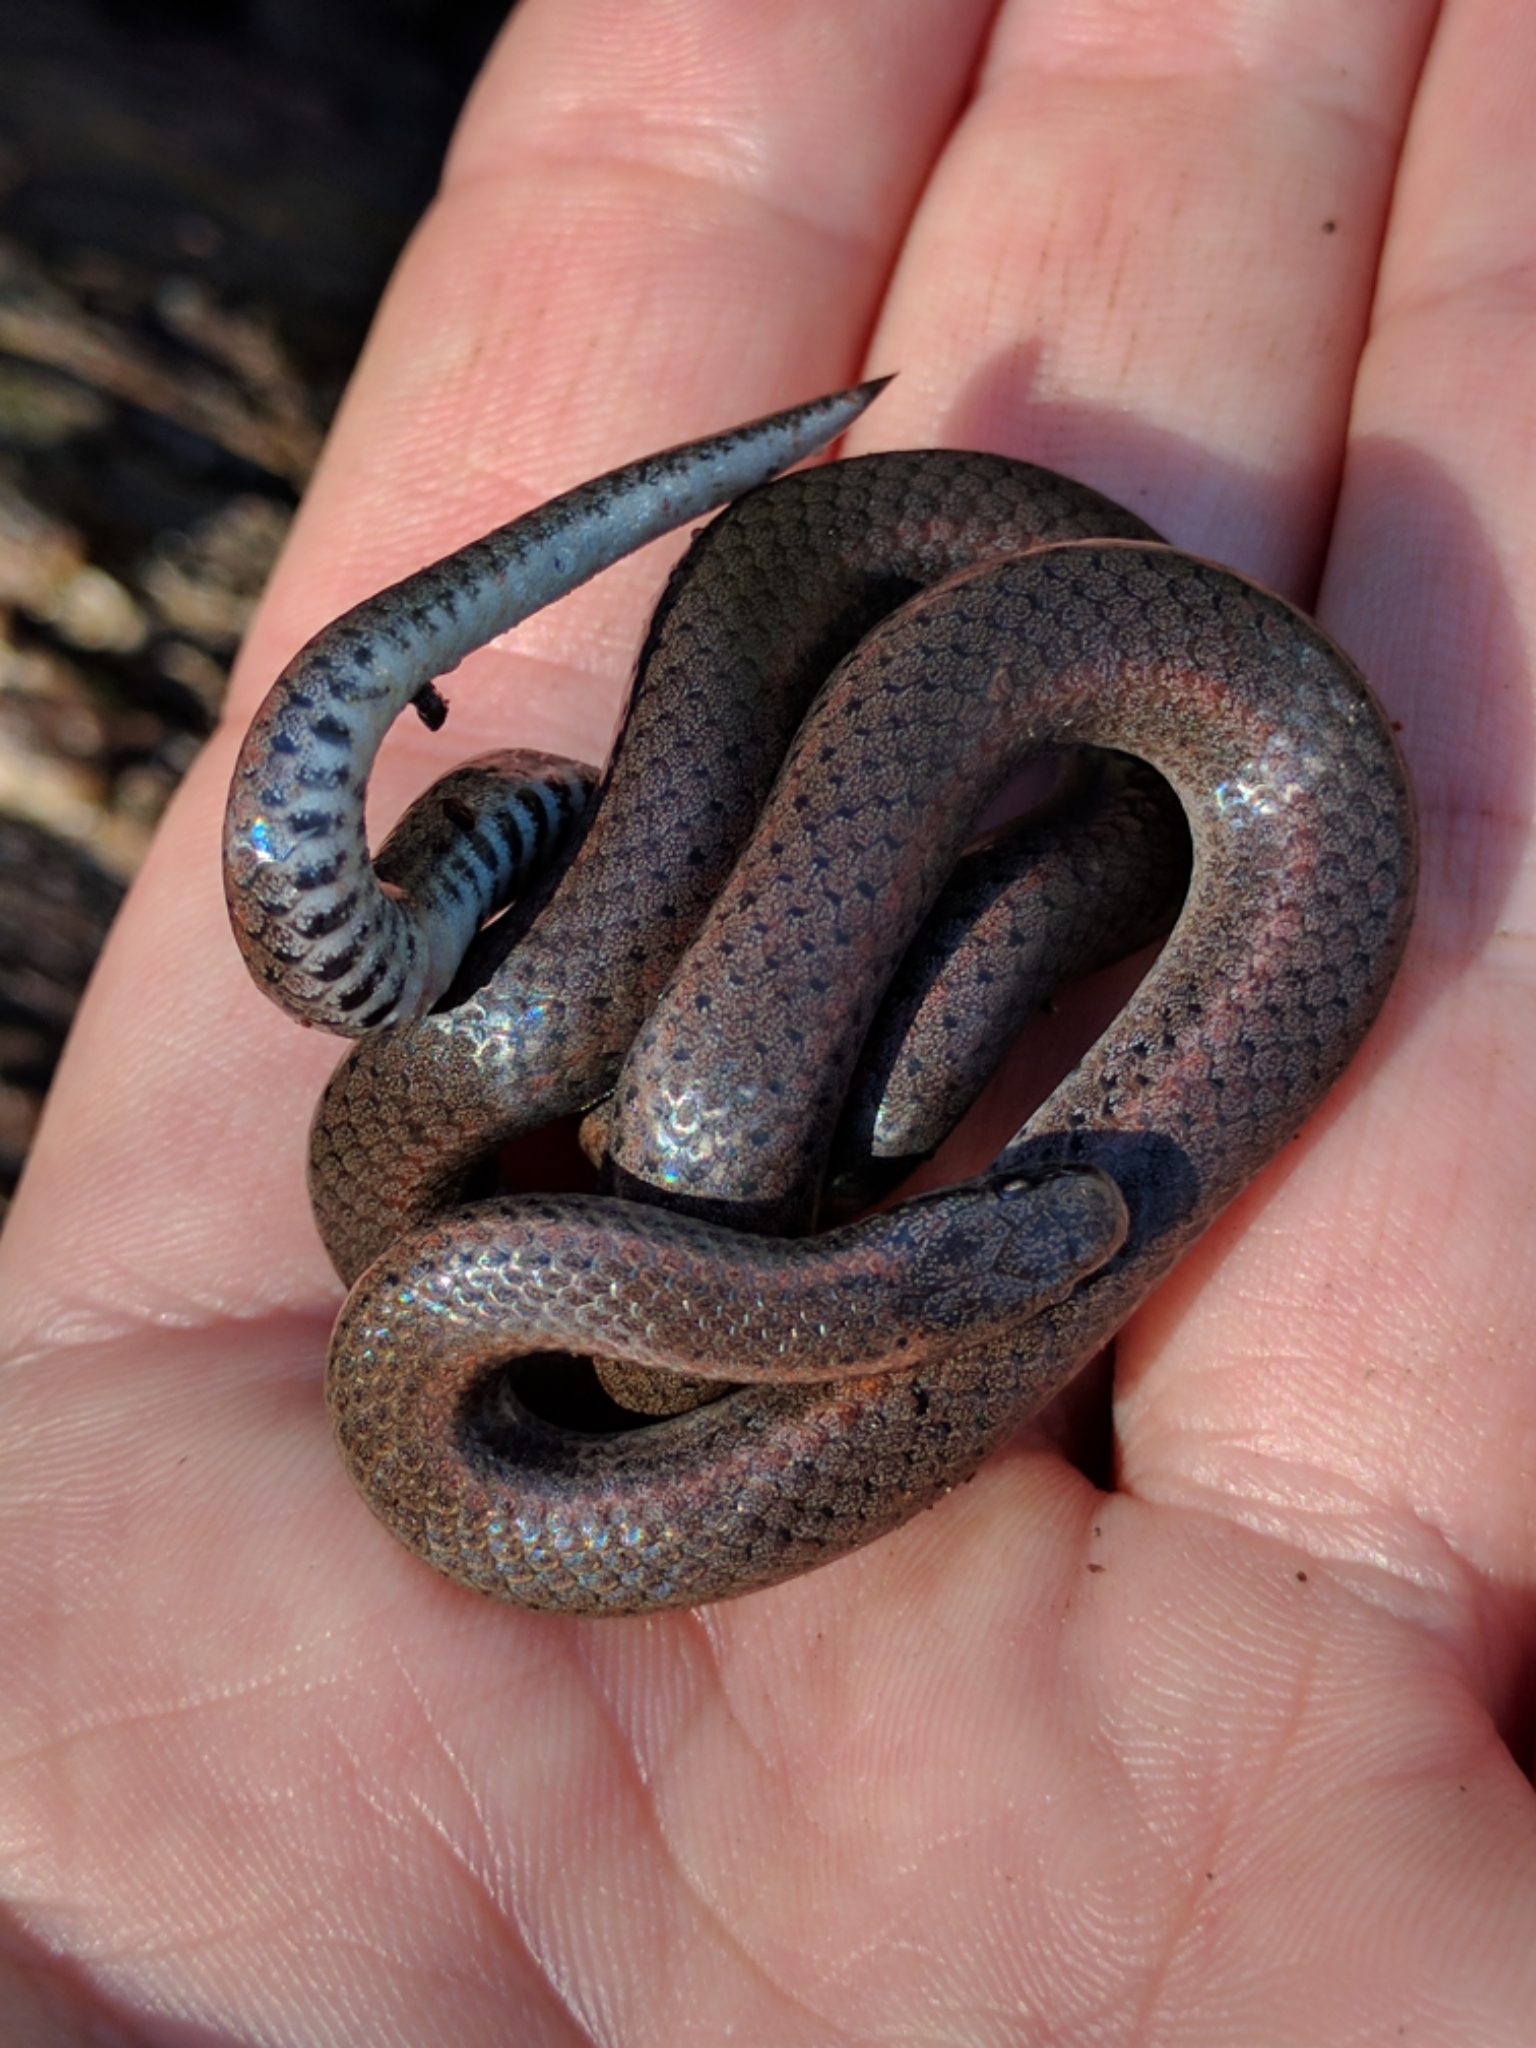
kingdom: Animalia
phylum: Chordata
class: Squamata
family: Colubridae
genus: Contia
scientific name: Contia tenuis
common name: Sharptail snake
